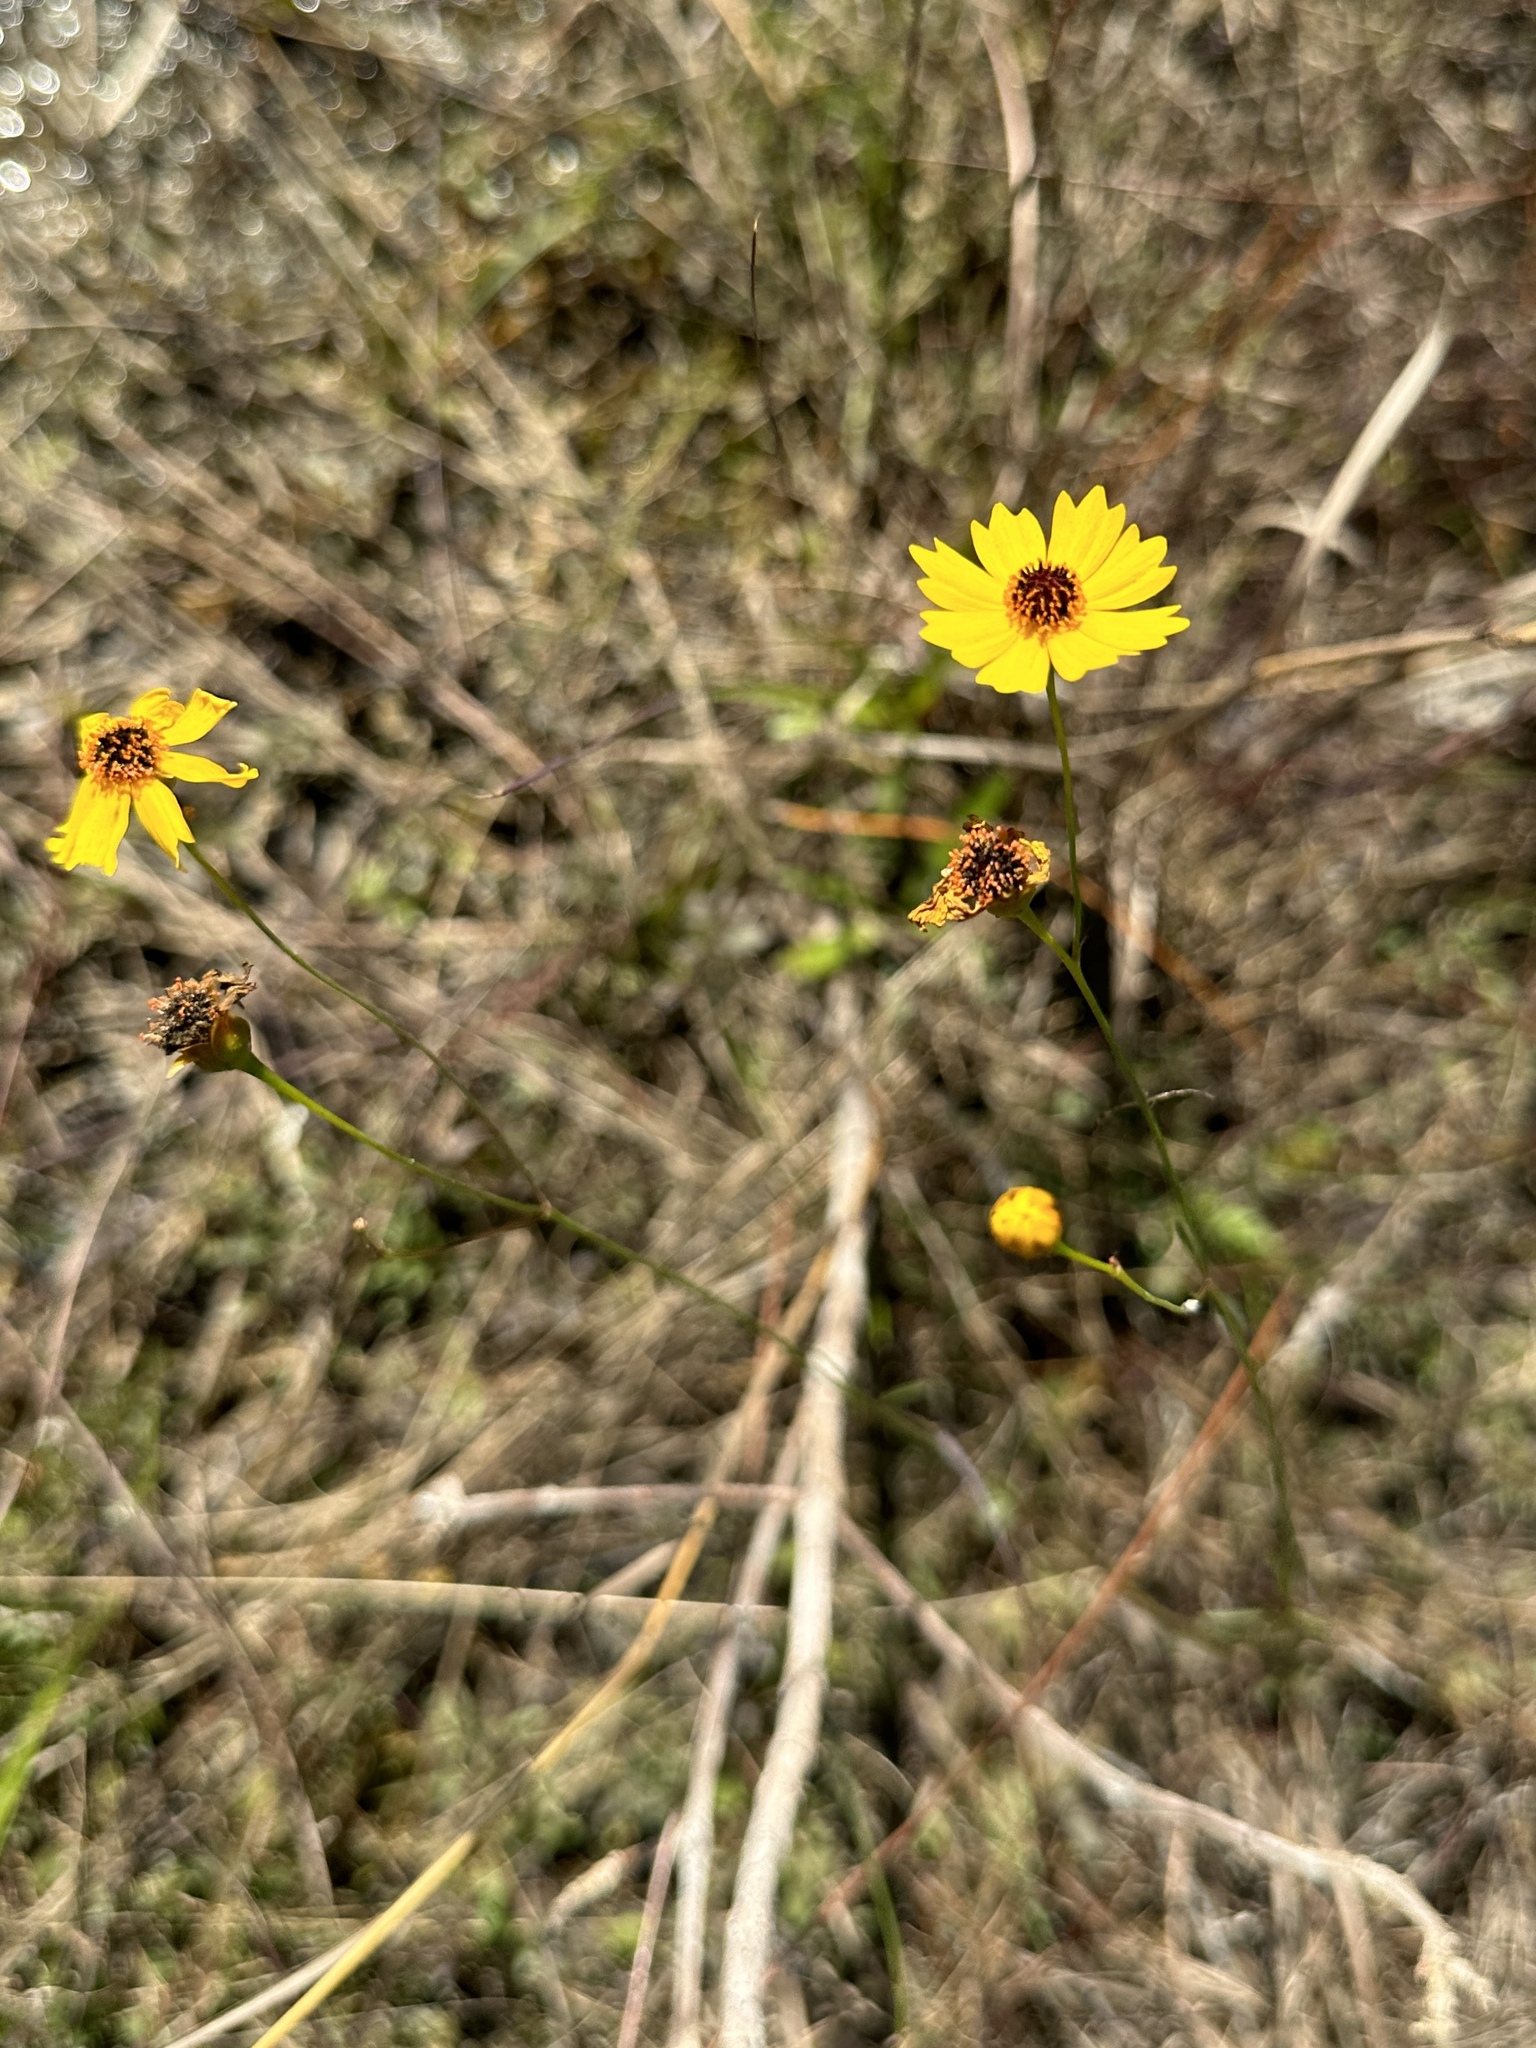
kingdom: Plantae
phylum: Tracheophyta
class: Magnoliopsida
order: Asterales
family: Asteraceae
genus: Coreopsis
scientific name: Coreopsis leavenworthii
